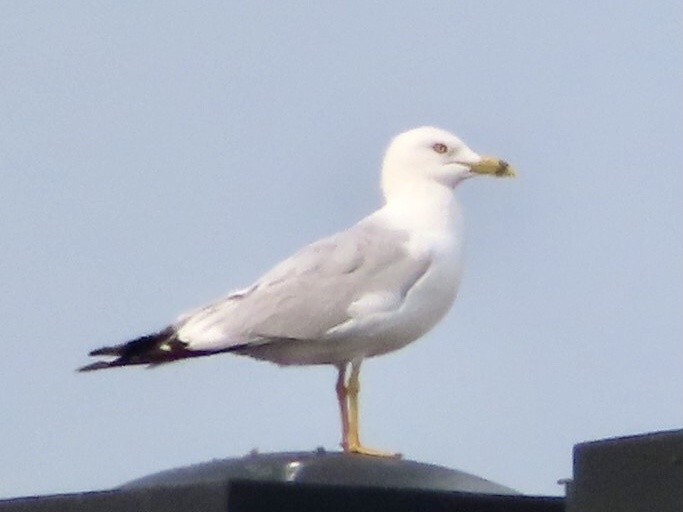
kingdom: Animalia
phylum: Chordata
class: Aves
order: Charadriiformes
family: Laridae
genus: Larus
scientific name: Larus delawarensis
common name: Ring-billed gull
